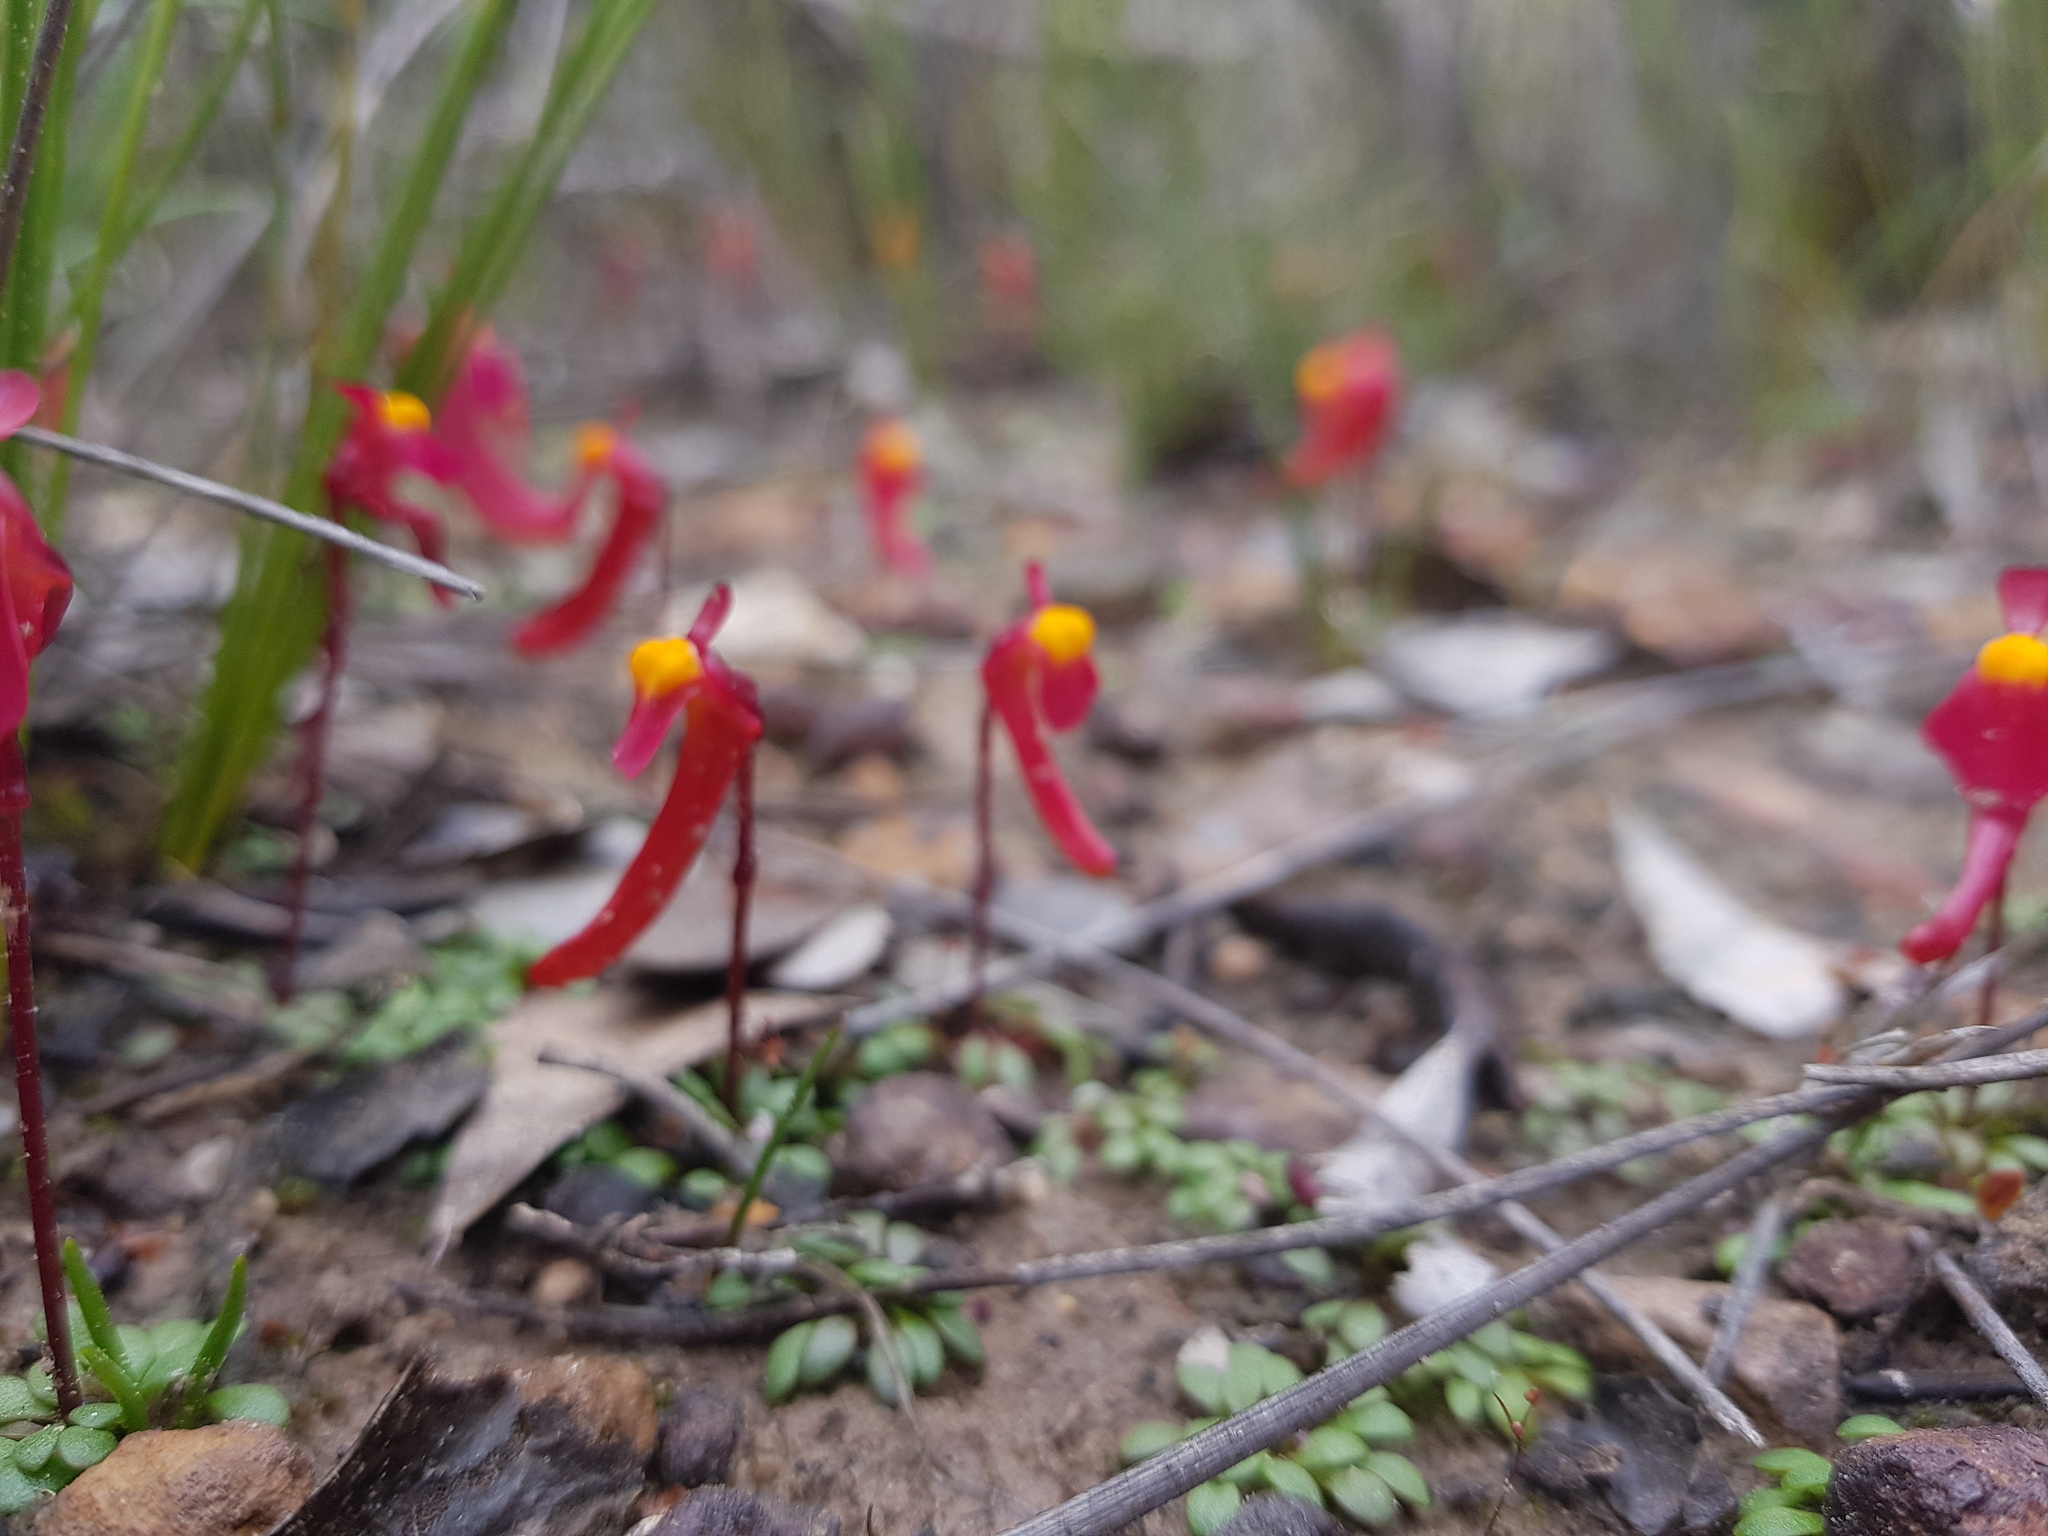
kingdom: Plantae
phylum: Tracheophyta
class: Magnoliopsida
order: Lamiales
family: Lentibulariaceae
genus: Utricularia
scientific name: Utricularia menziesii
